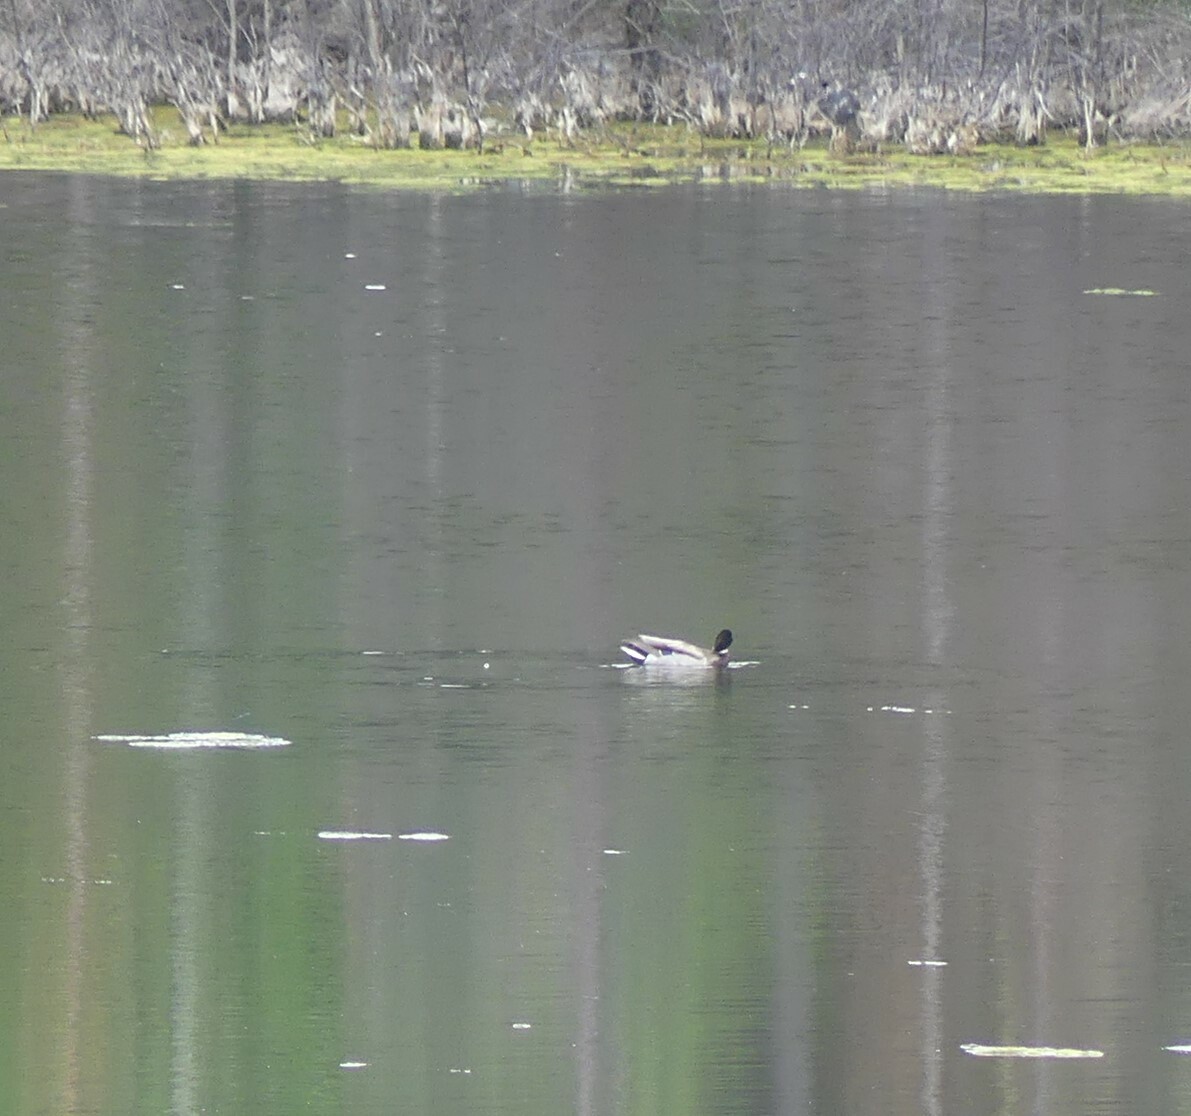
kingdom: Animalia
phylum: Chordata
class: Aves
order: Anseriformes
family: Anatidae
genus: Anas
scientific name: Anas platyrhynchos
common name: Mallard
